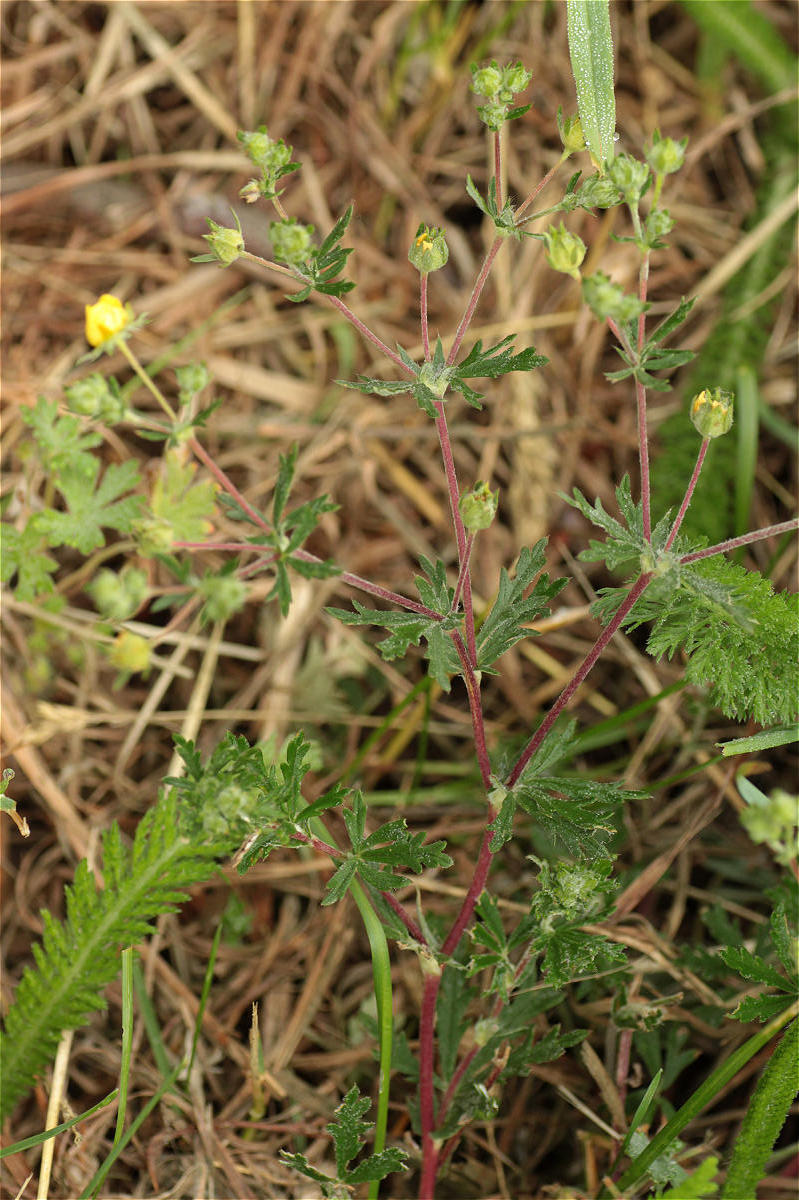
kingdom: Plantae
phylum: Tracheophyta
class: Magnoliopsida
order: Rosales
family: Rosaceae
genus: Potentilla
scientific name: Potentilla argentea
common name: Hoary cinquefoil
